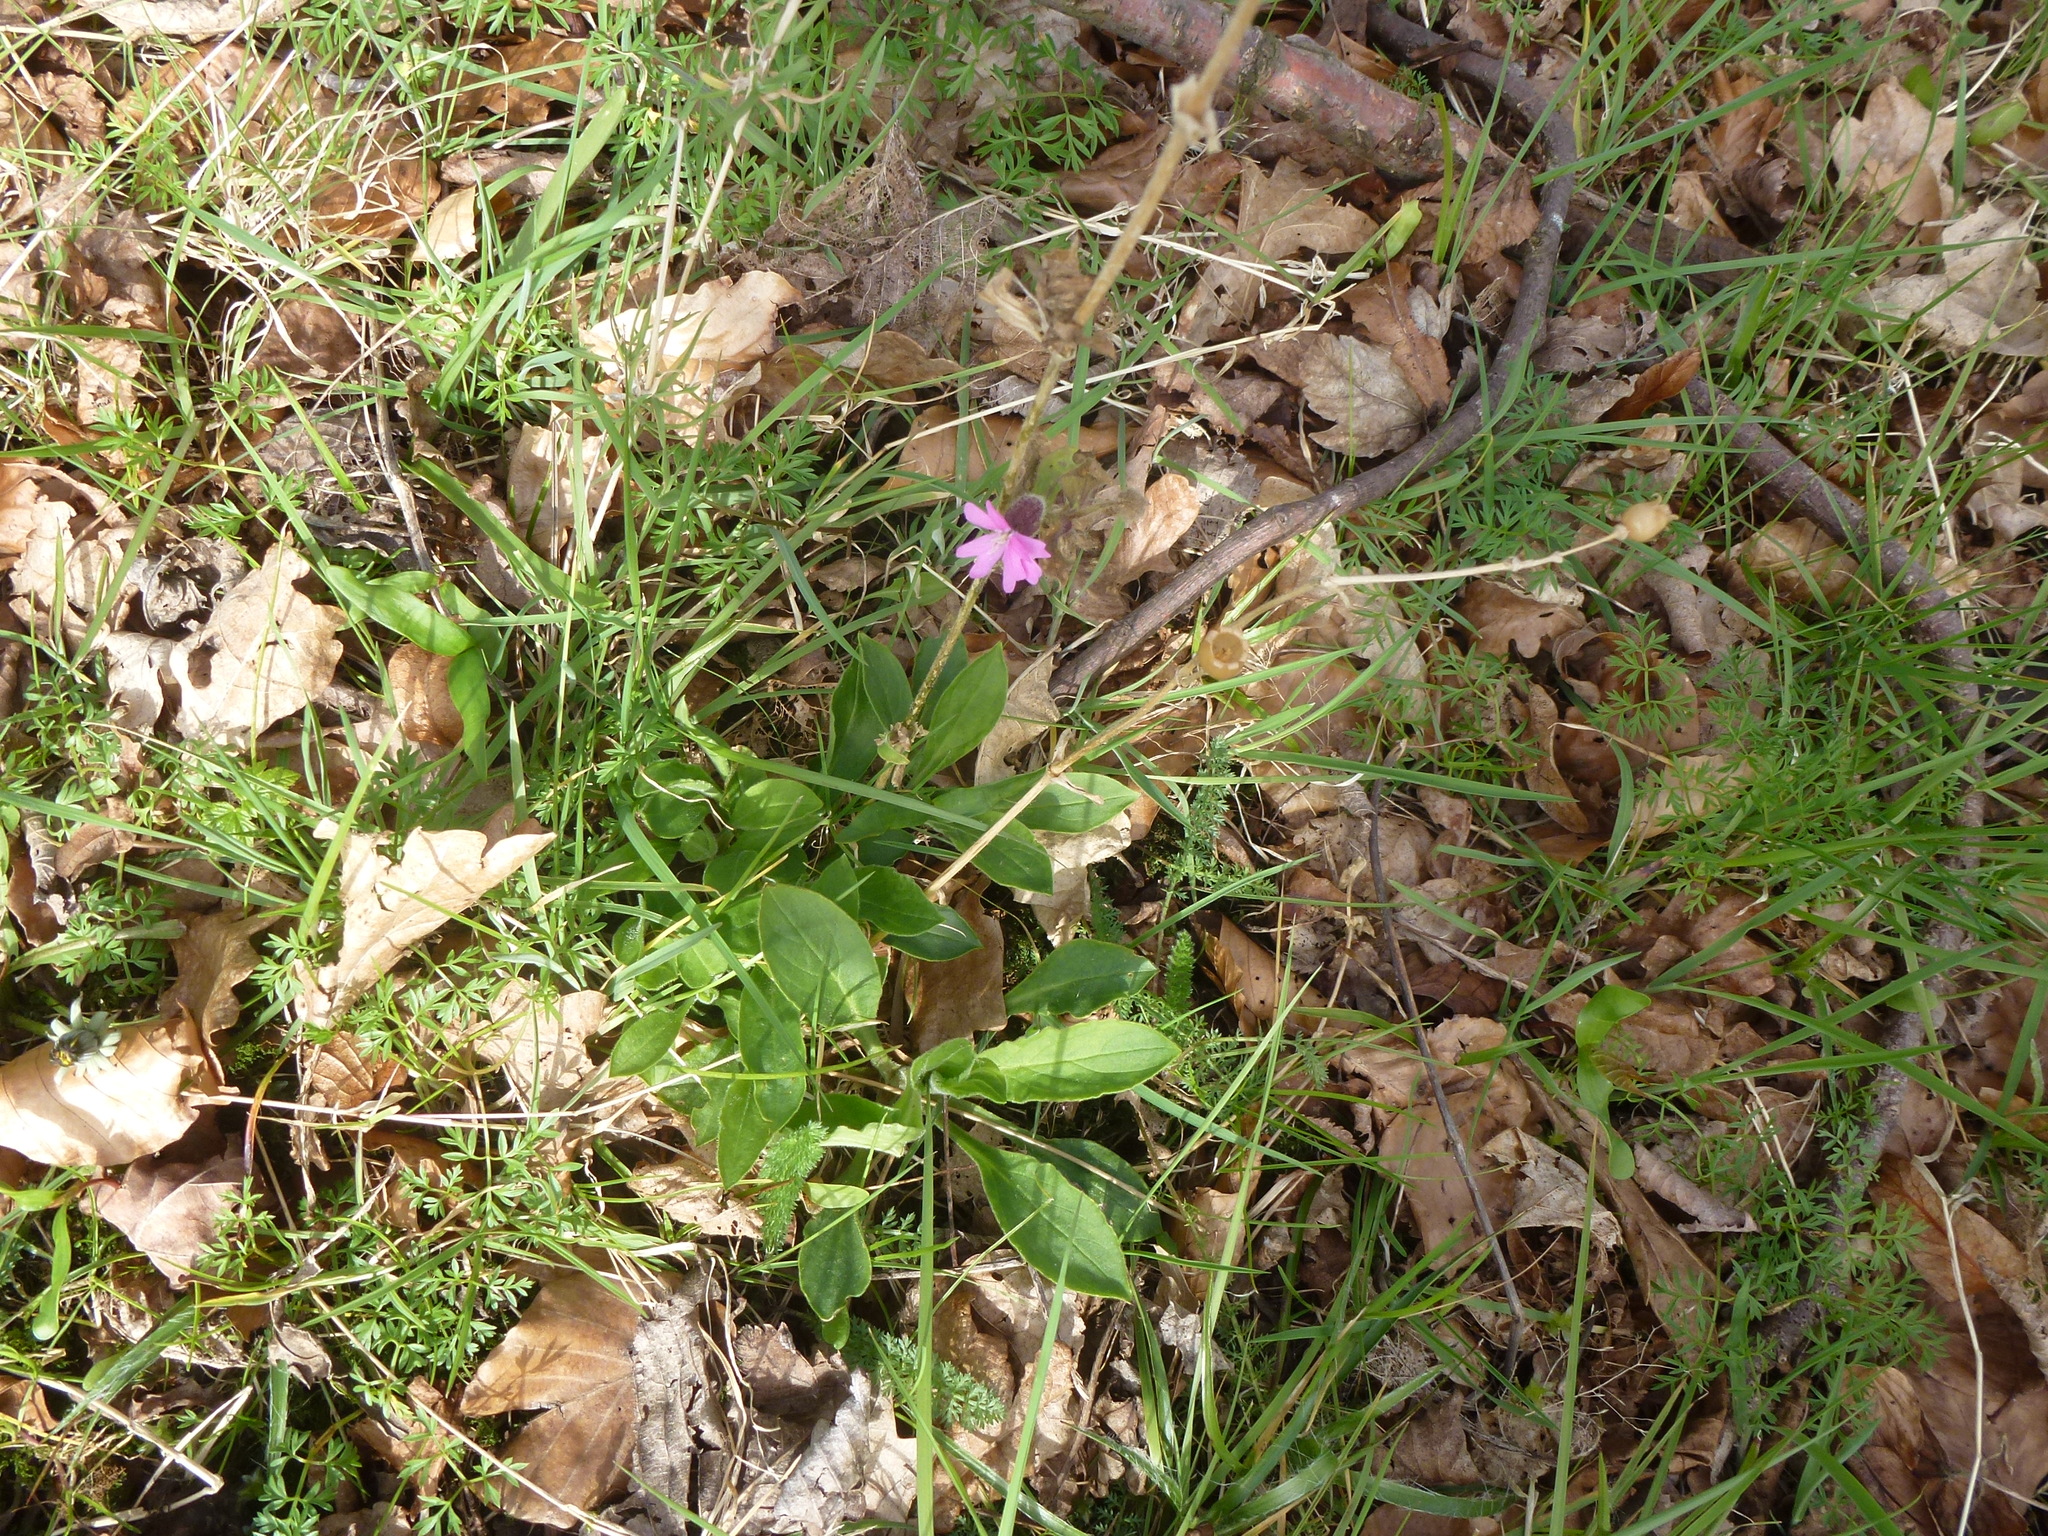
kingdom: Plantae
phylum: Tracheophyta
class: Magnoliopsida
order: Caryophyllales
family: Caryophyllaceae
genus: Silene
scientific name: Silene dioica
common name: Red campion
